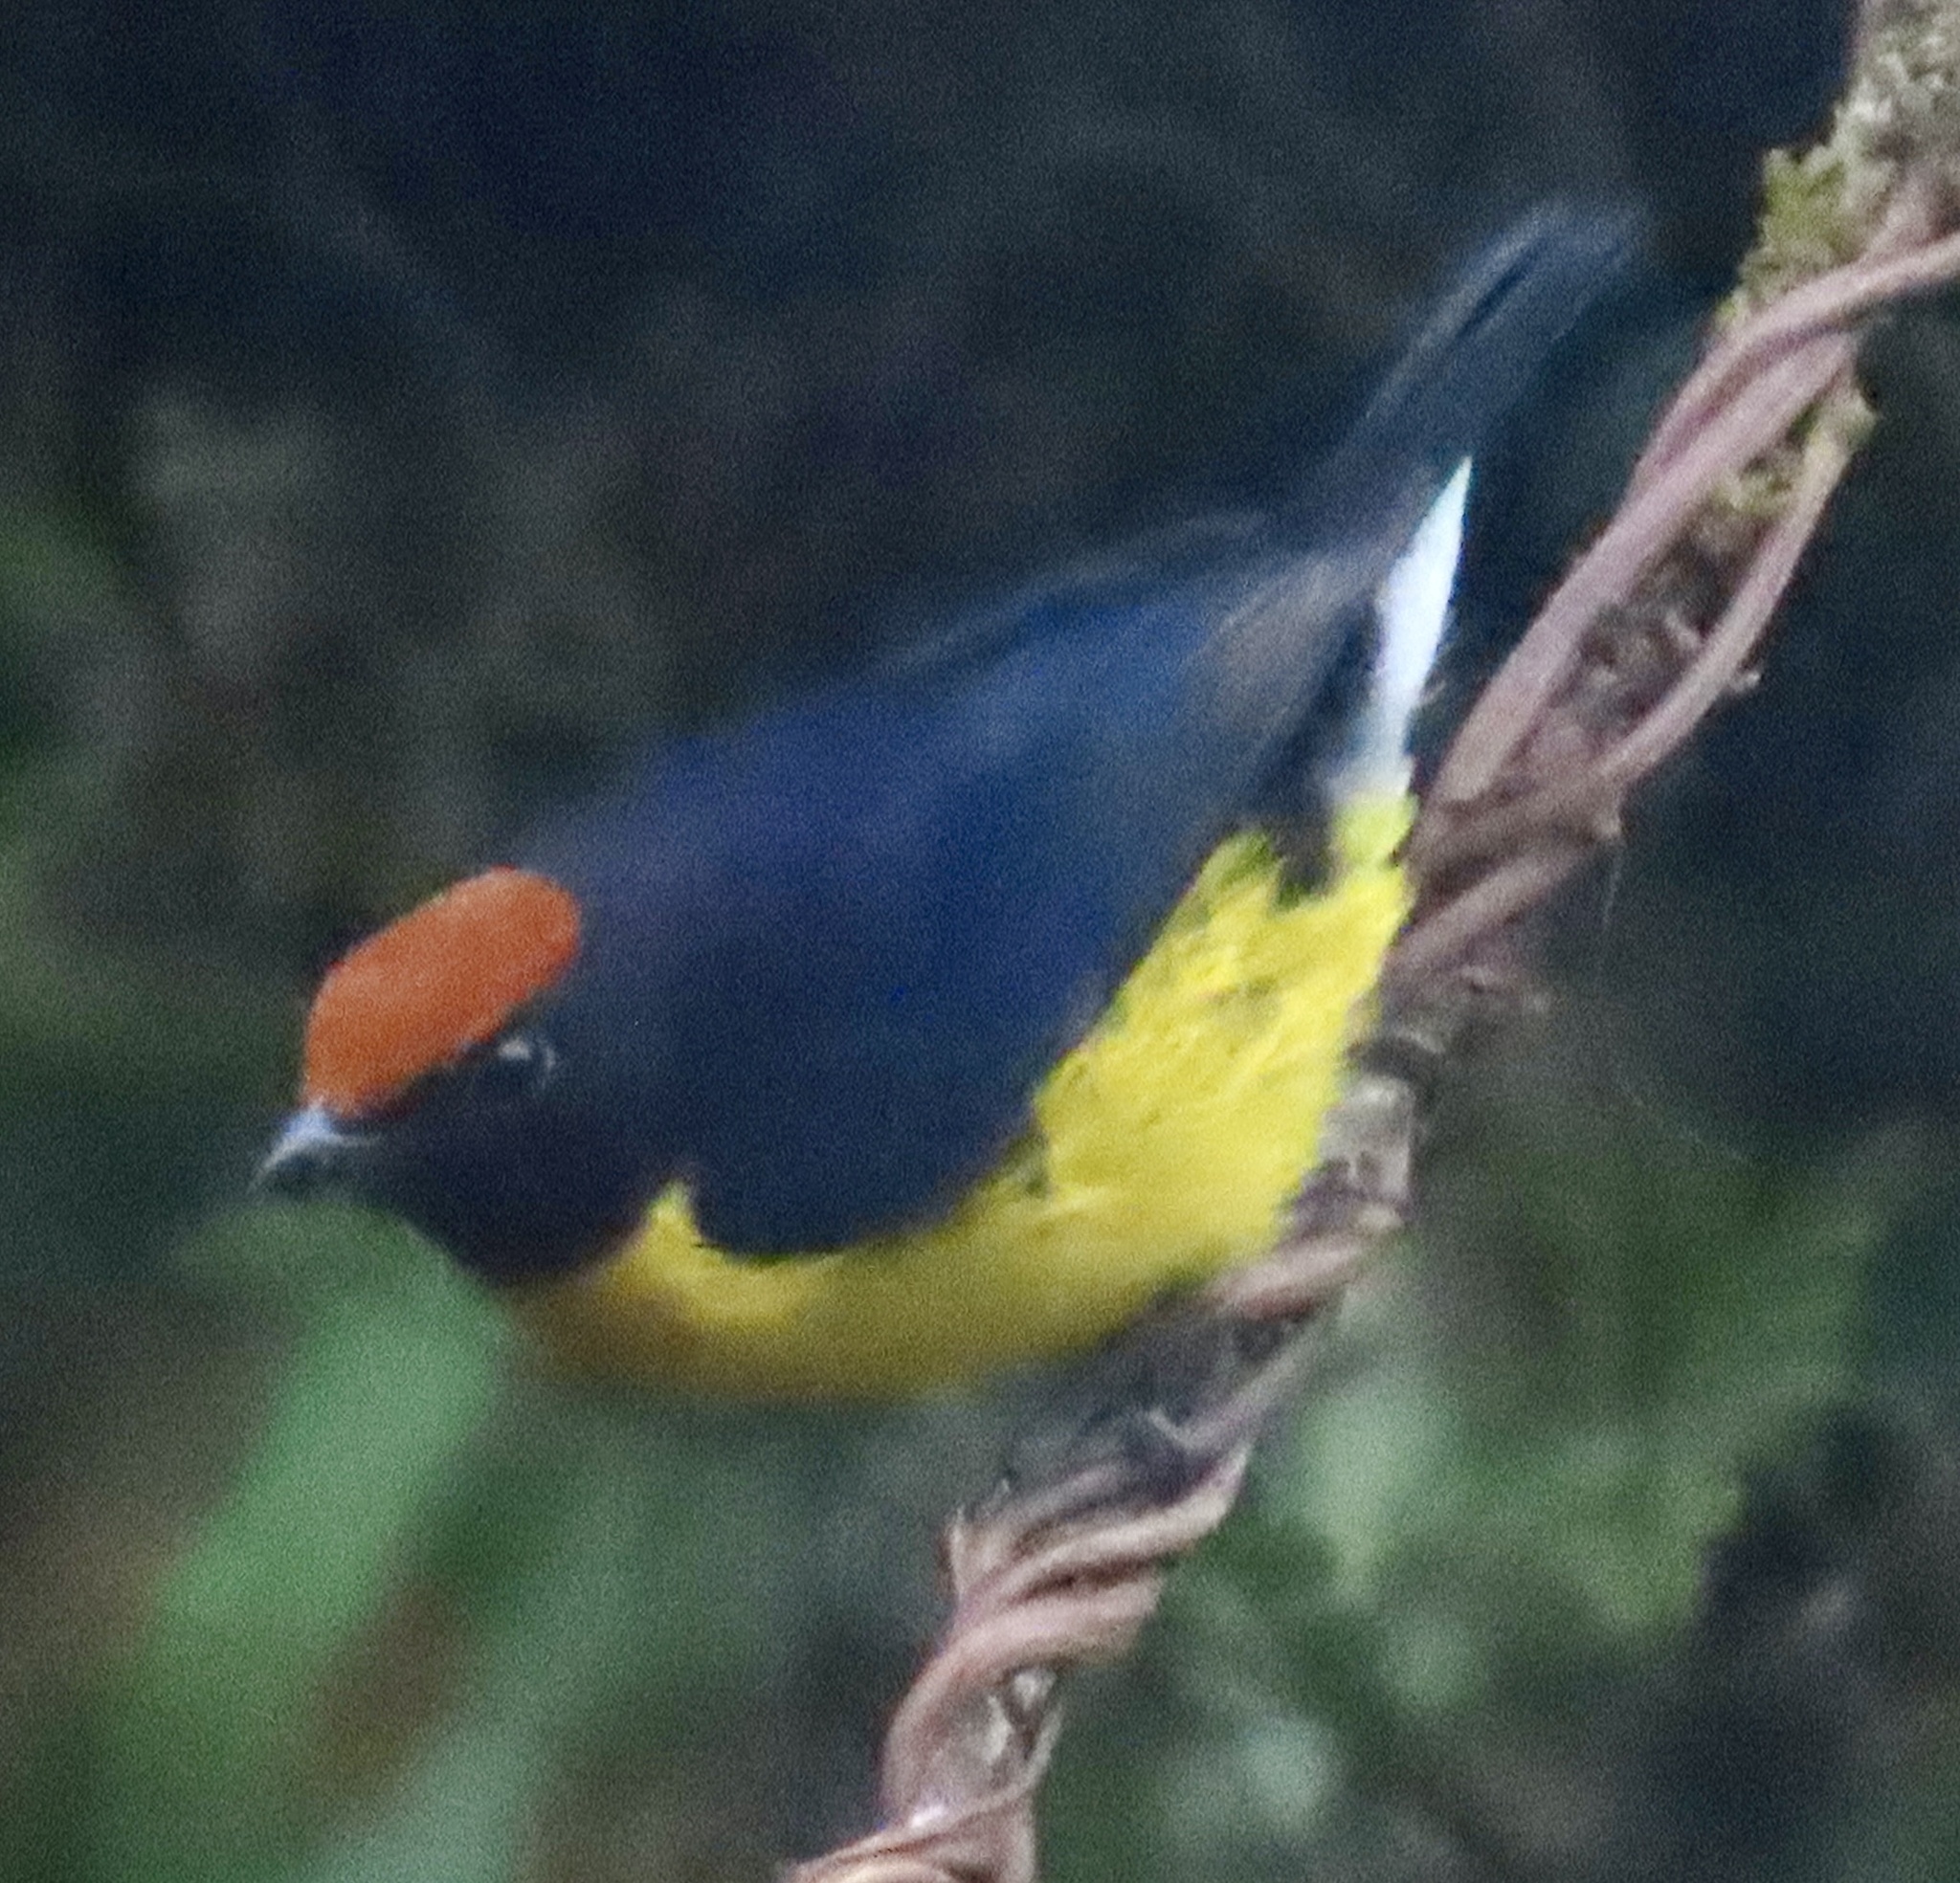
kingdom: Animalia
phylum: Chordata
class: Aves
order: Passeriformes
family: Fringillidae
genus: Euphonia
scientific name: Euphonia anneae
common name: Tawny-capped euphonia
